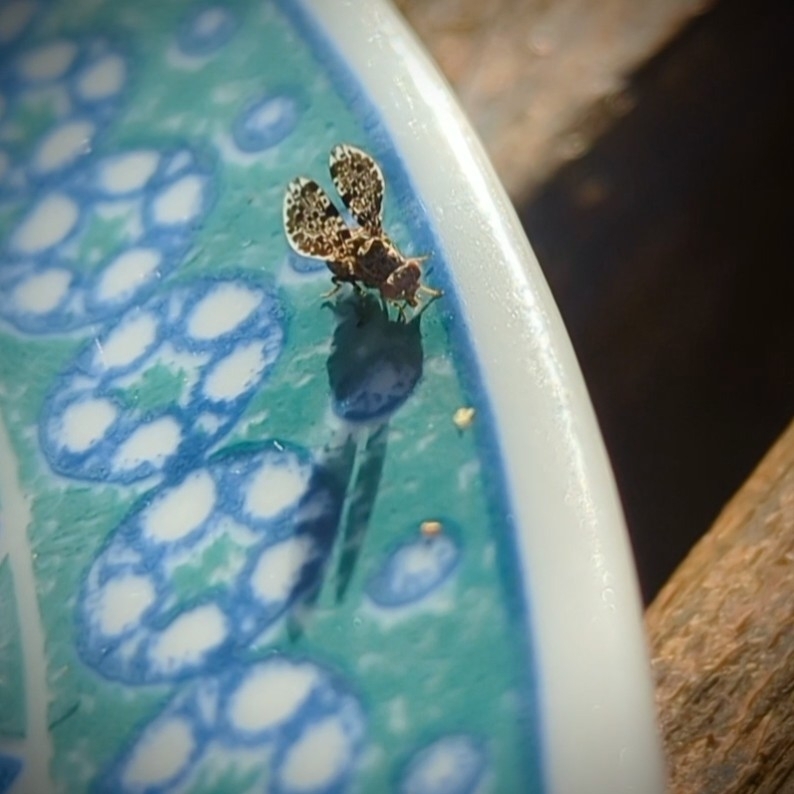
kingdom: Animalia
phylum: Arthropoda
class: Insecta
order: Diptera
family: Ulidiidae
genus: Callopistromyia
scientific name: Callopistromyia annulipes
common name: Peacock fly
